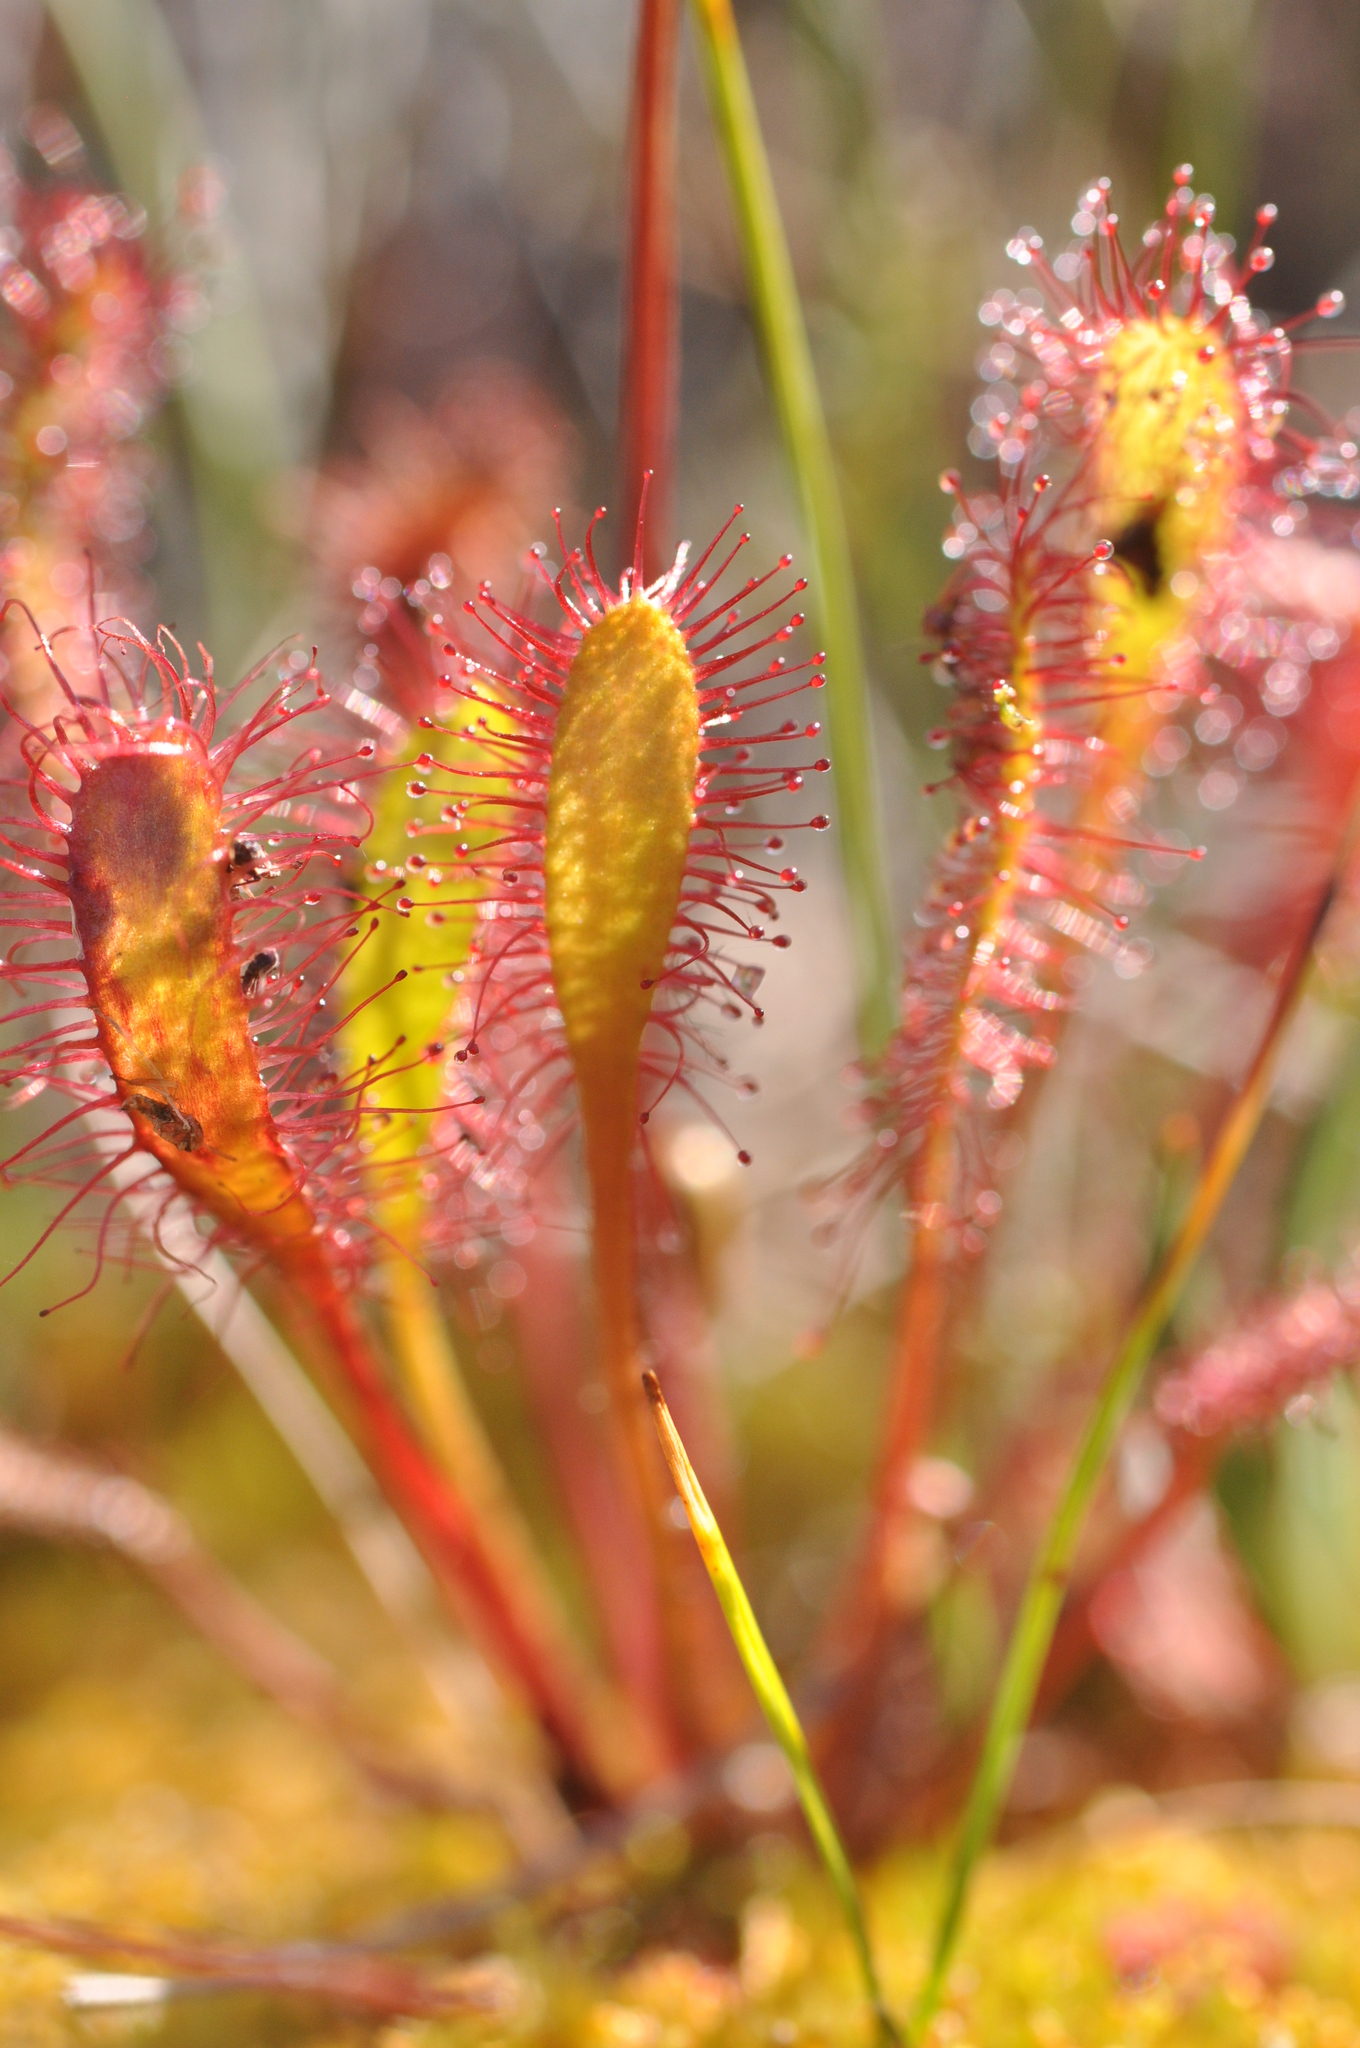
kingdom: Plantae
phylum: Tracheophyta
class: Magnoliopsida
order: Caryophyllales
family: Droseraceae
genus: Drosera
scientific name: Drosera anglica
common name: Great sundew
